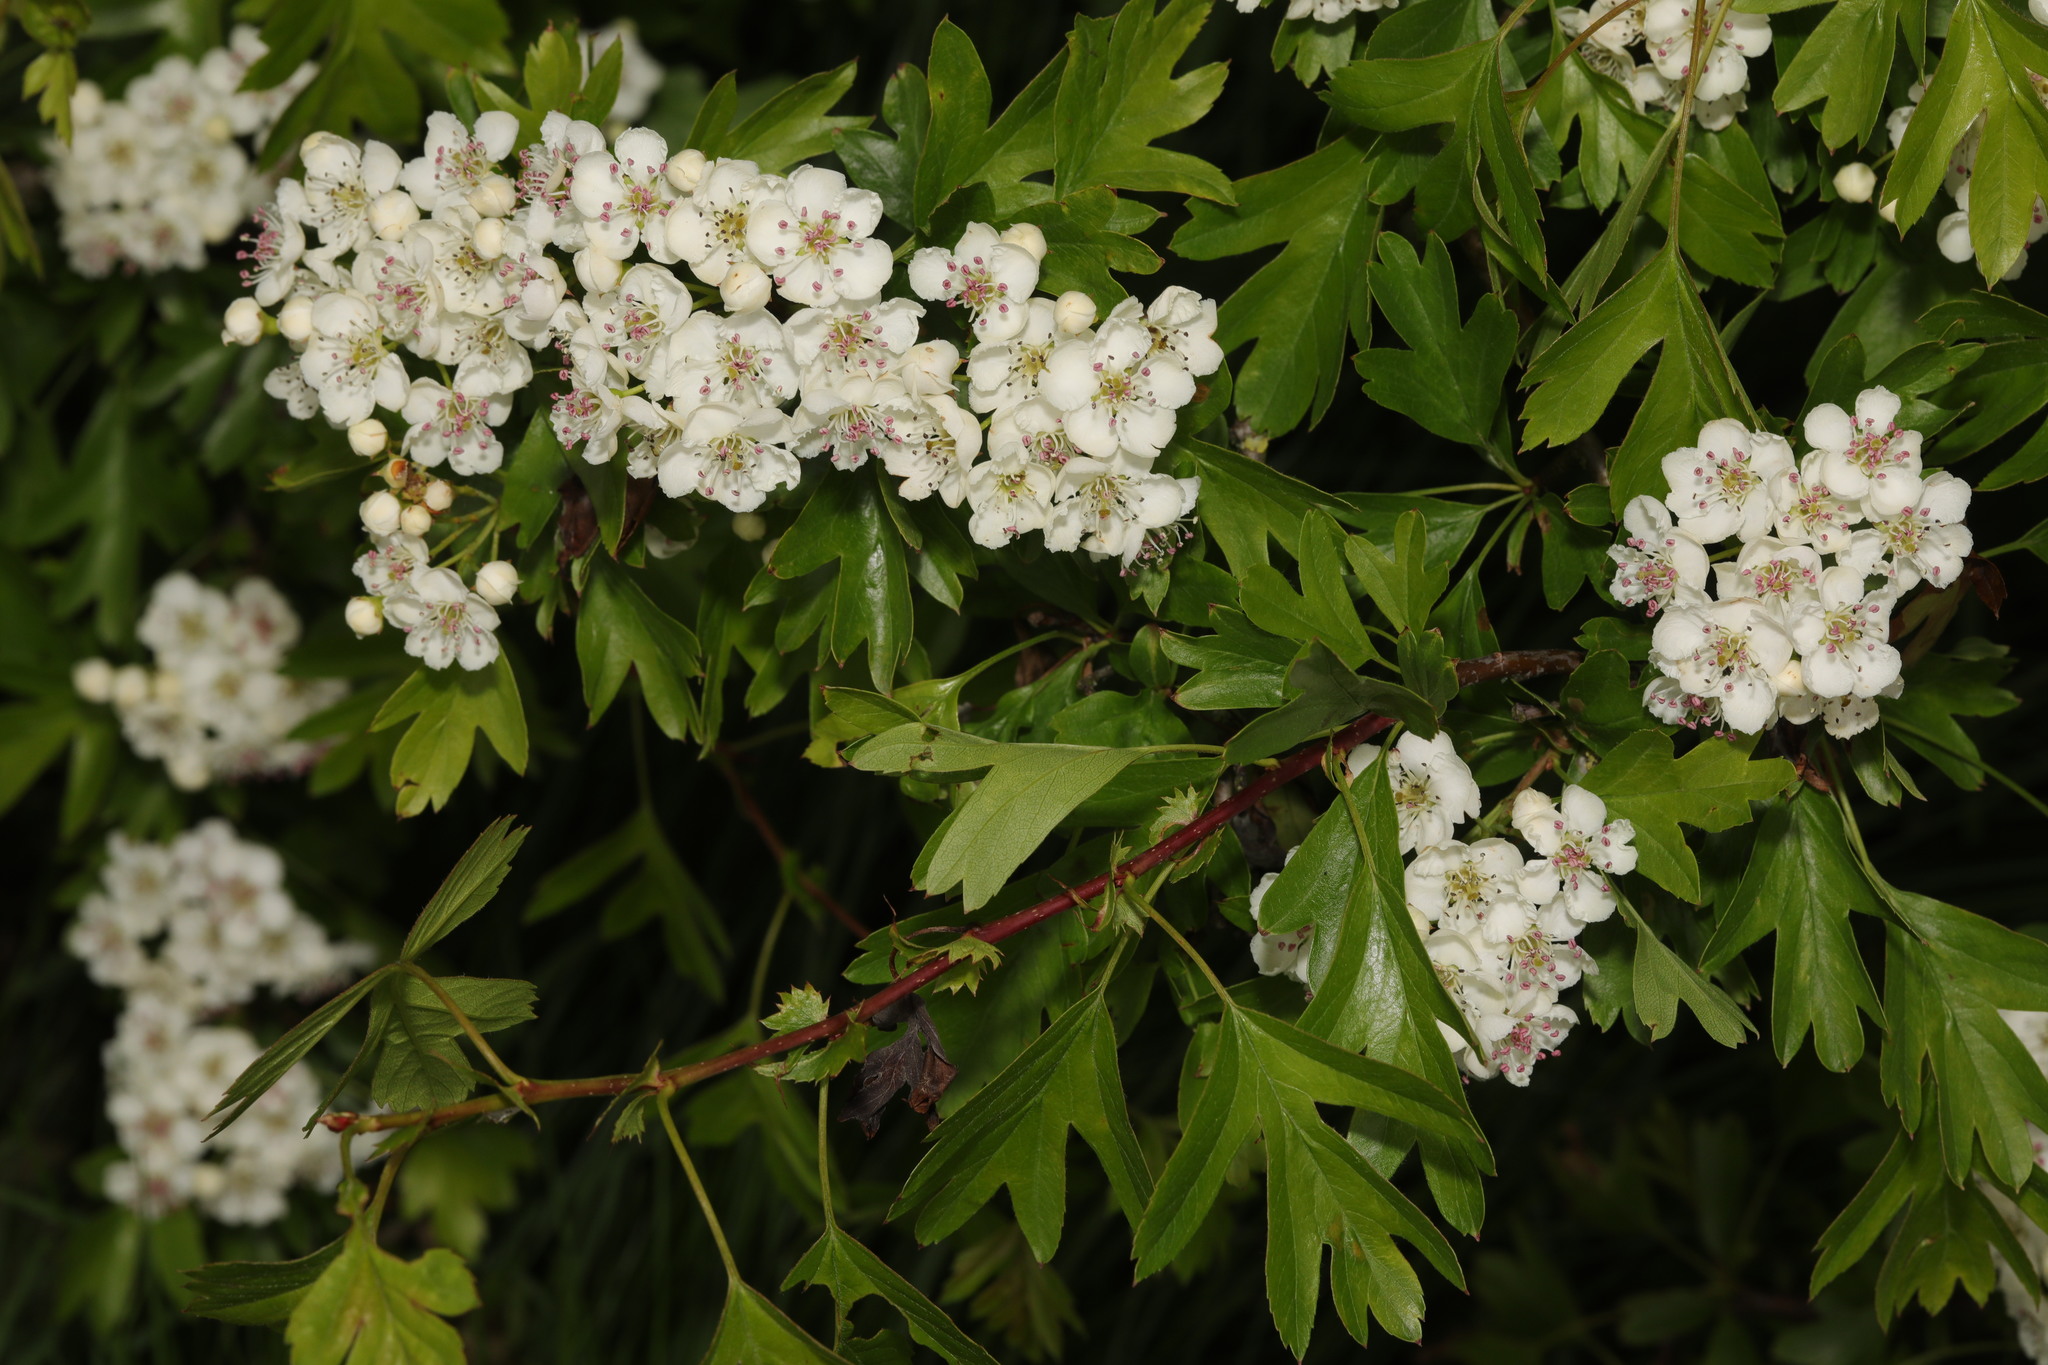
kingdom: Plantae
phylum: Tracheophyta
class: Magnoliopsida
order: Rosales
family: Rosaceae
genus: Crataegus
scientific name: Crataegus monogyna
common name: Hawthorn
